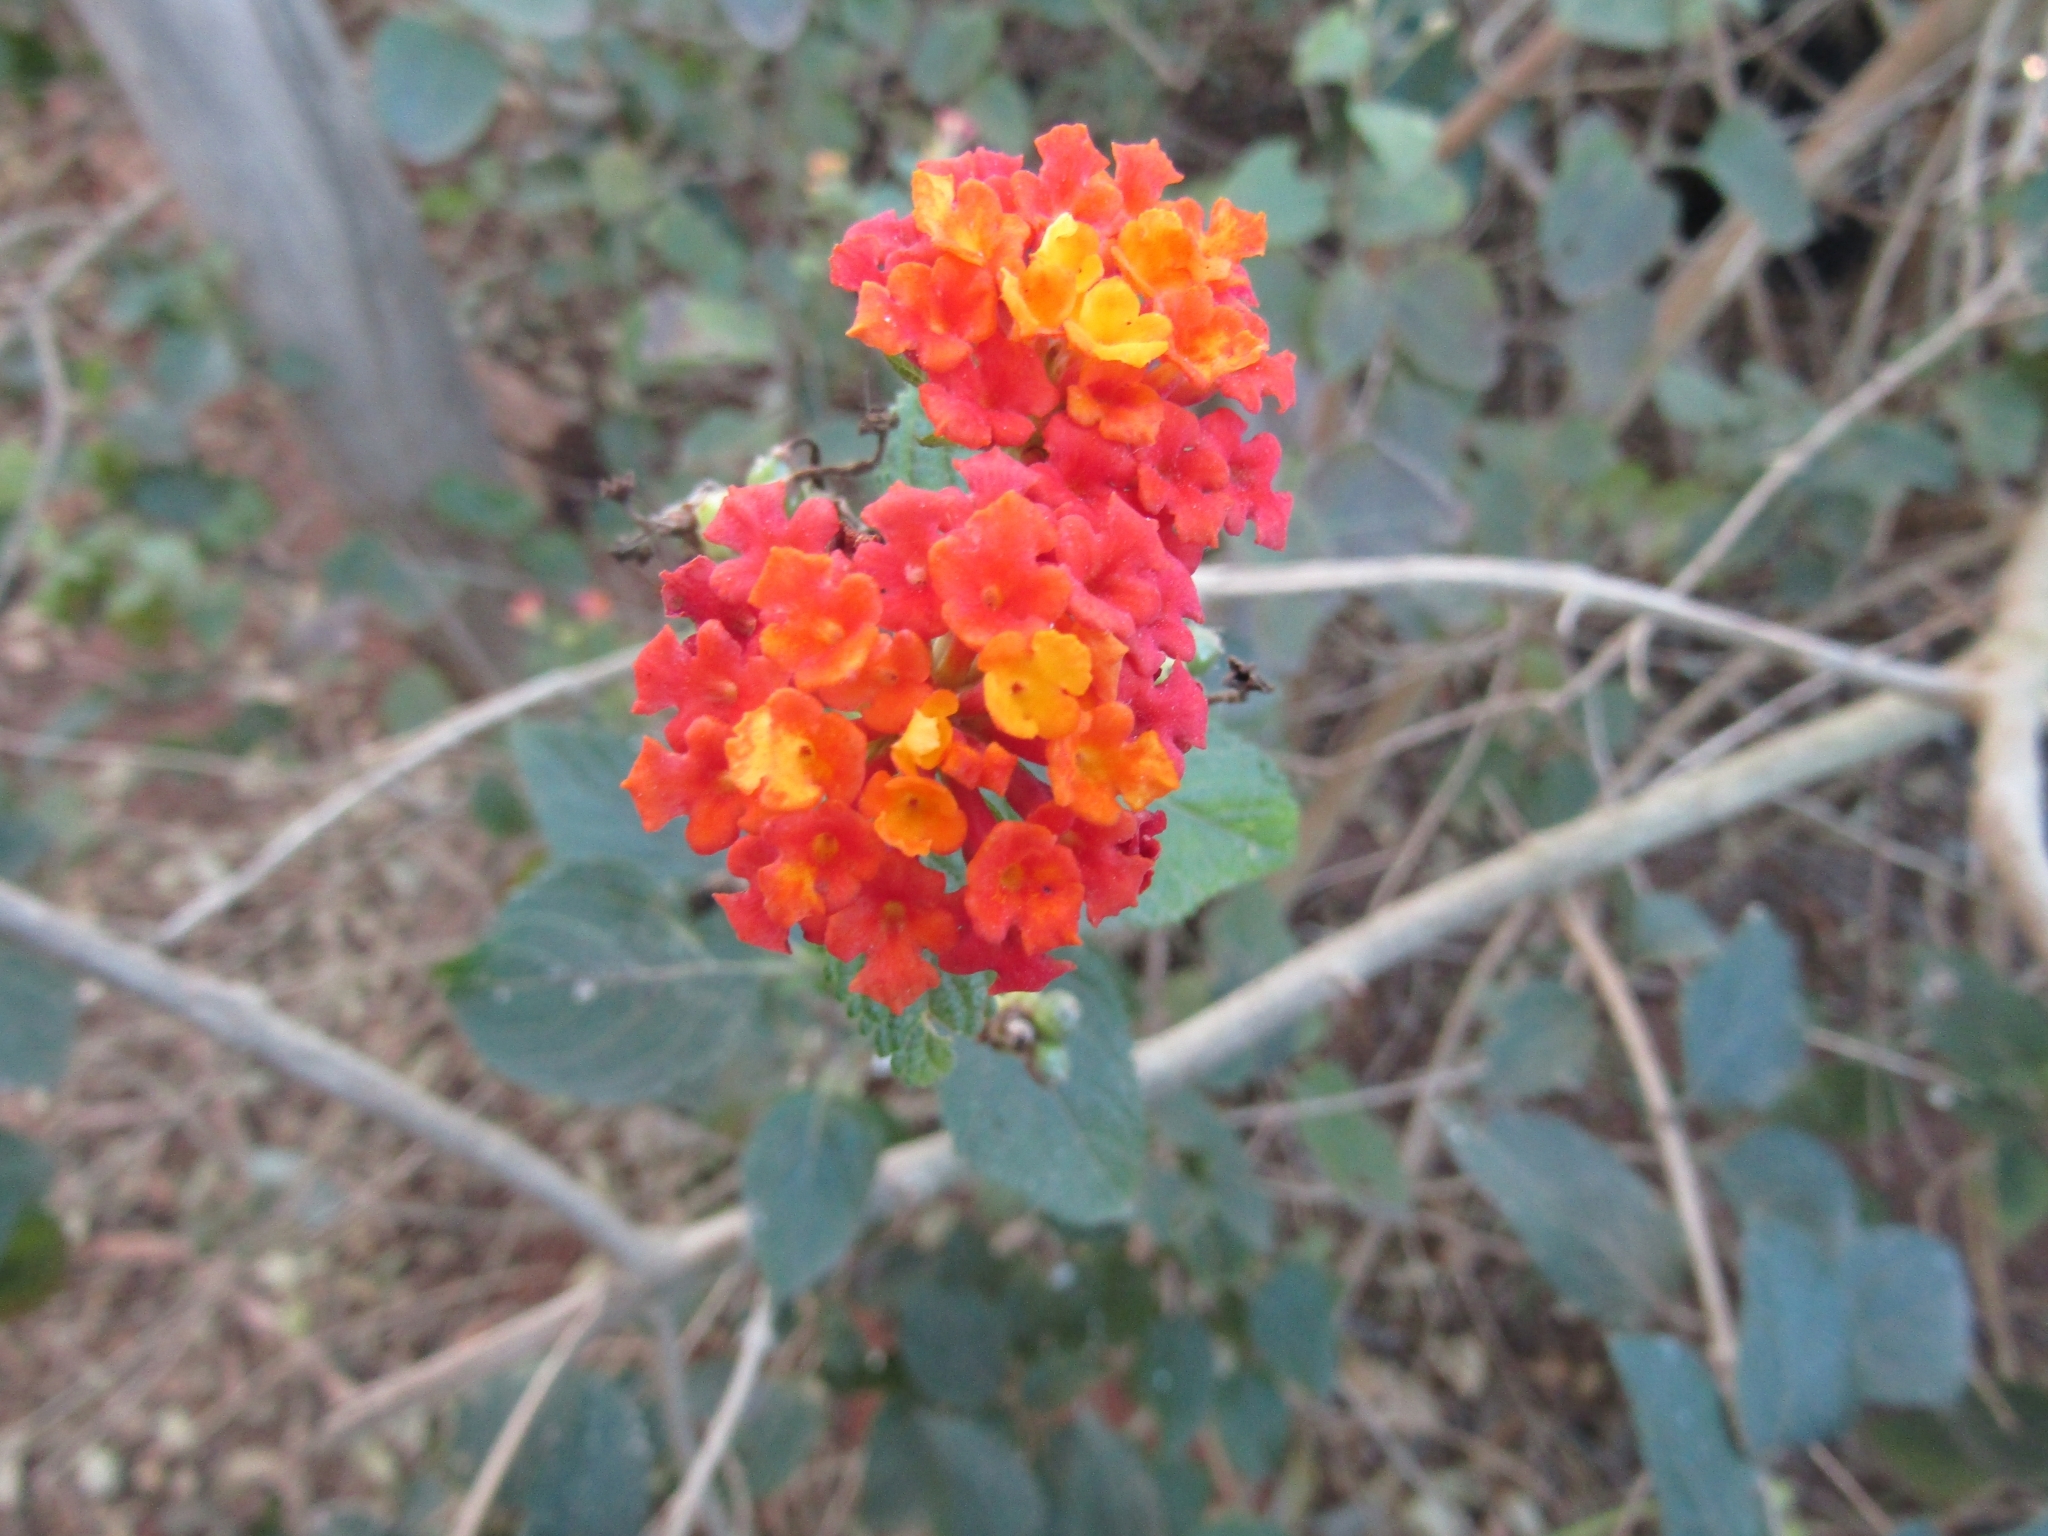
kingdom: Plantae
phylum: Tracheophyta
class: Magnoliopsida
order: Lamiales
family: Verbenaceae
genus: Lantana
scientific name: Lantana camara
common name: Lantana
